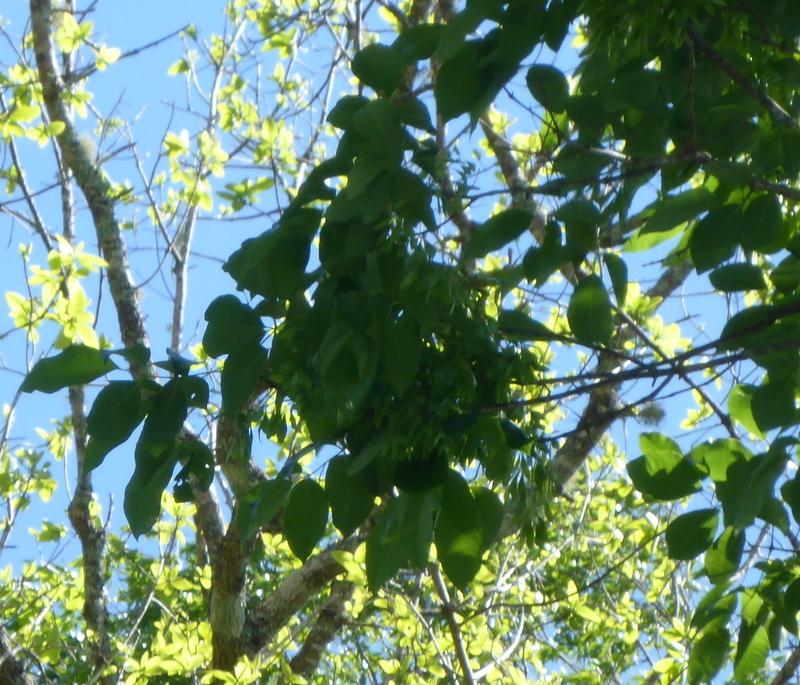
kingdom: Plantae
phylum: Tracheophyta
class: Magnoliopsida
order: Lamiales
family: Oleaceae
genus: Fraxinus
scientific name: Fraxinus profunda
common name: Pumpkin ash
